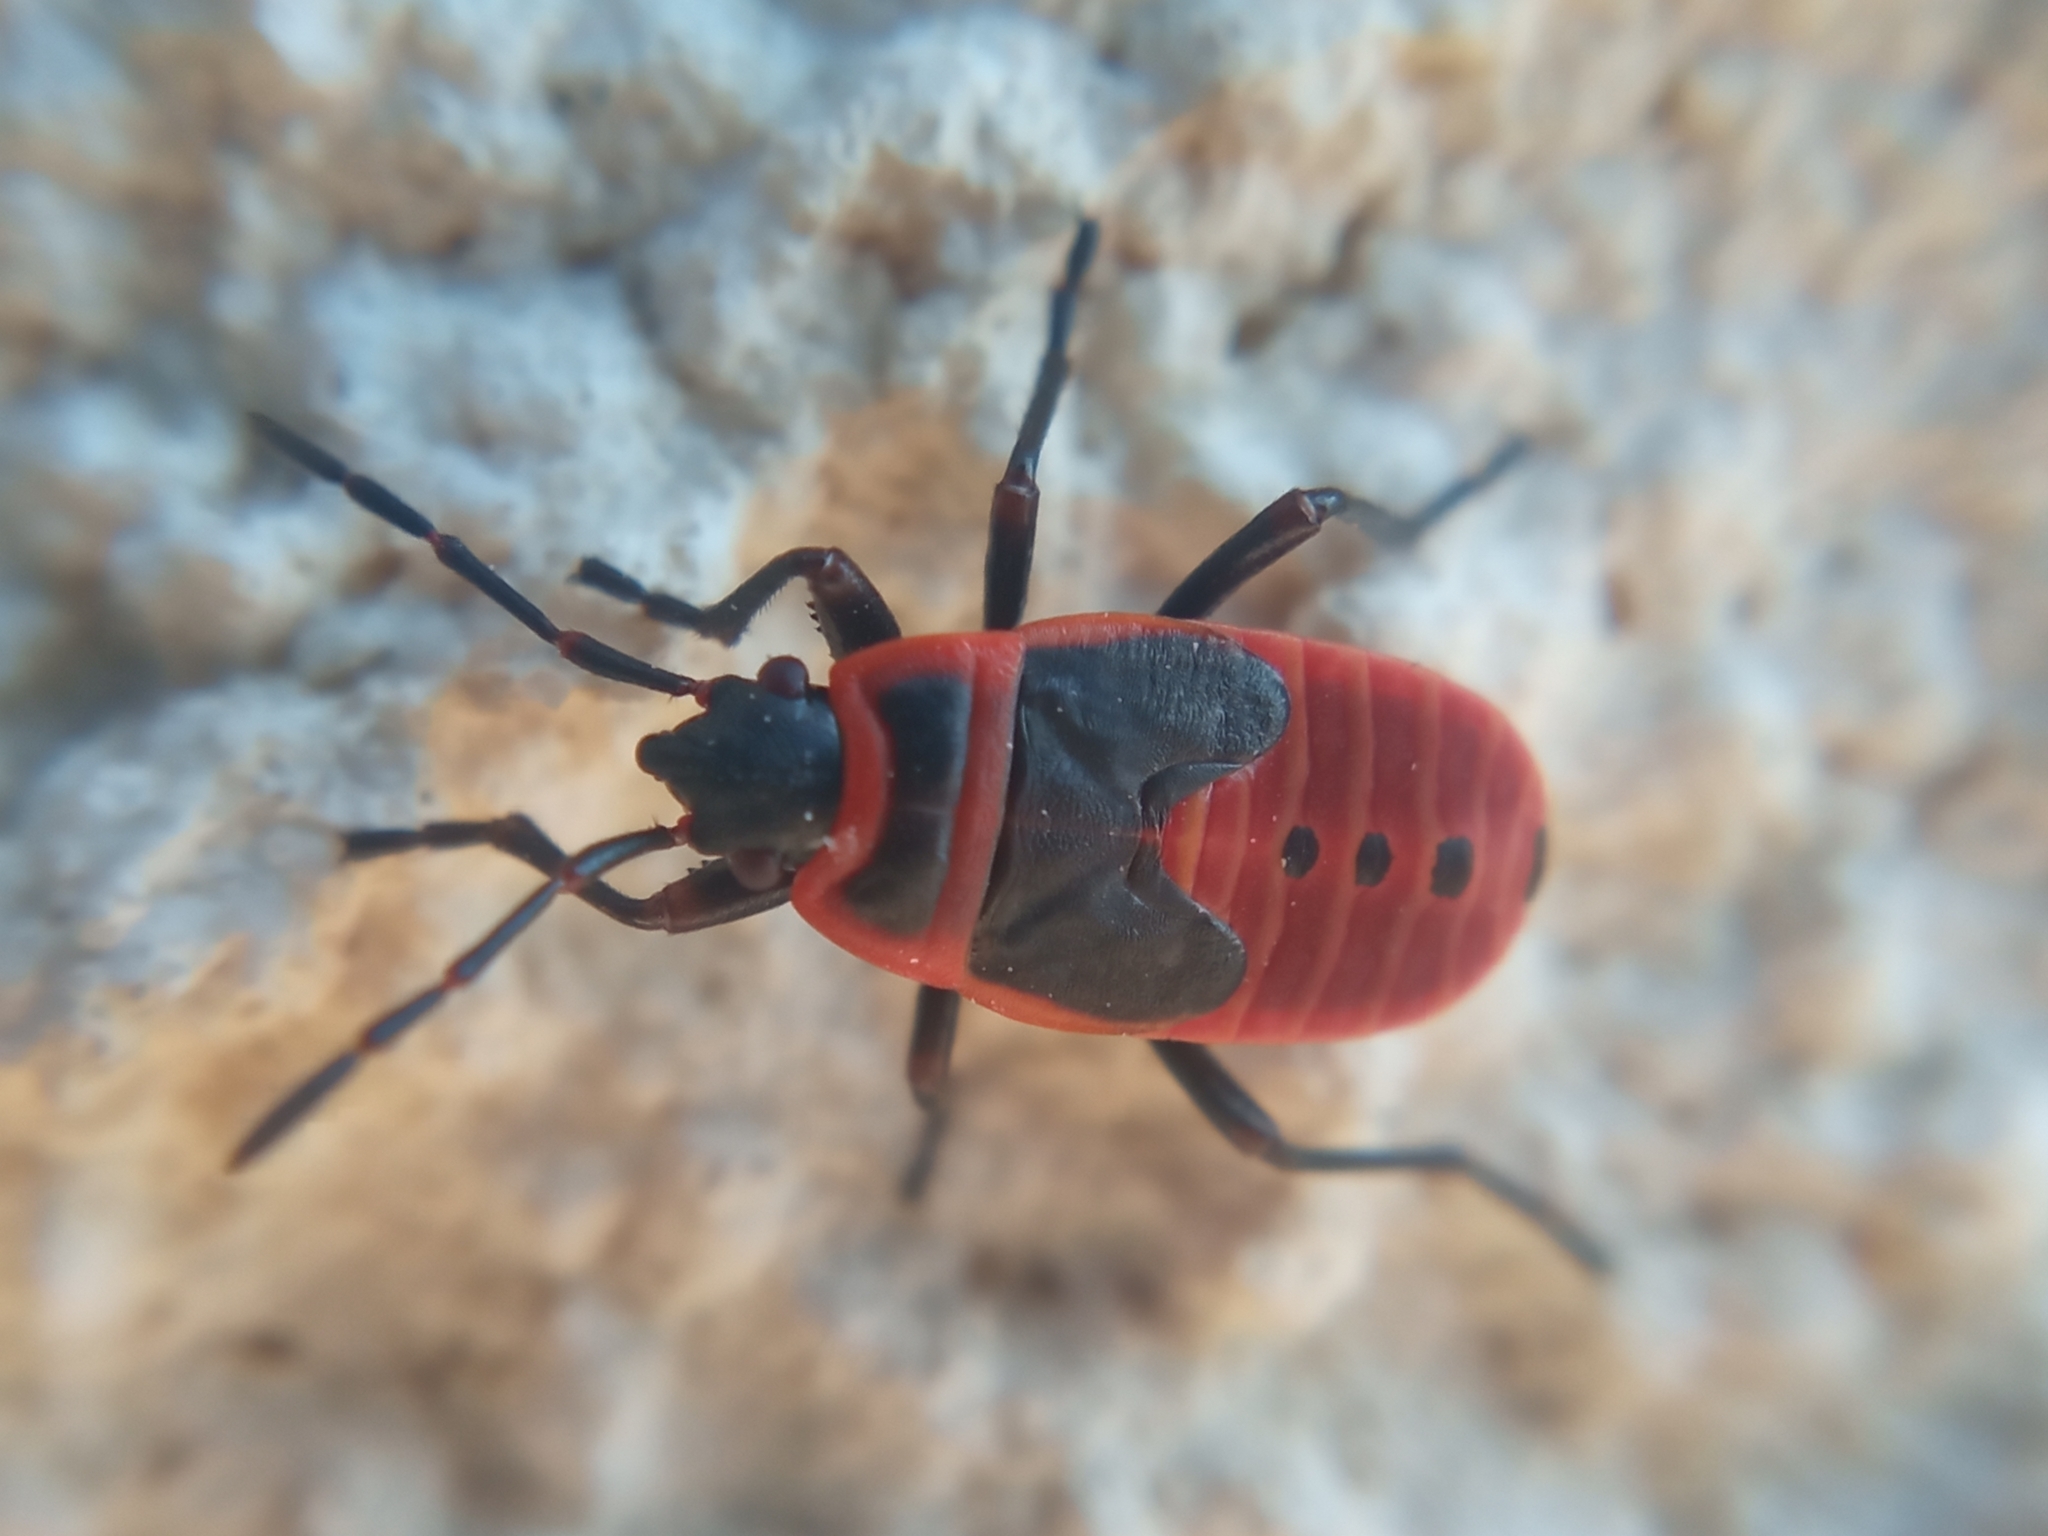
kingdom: Animalia
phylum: Arthropoda
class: Insecta
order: Hemiptera
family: Pyrrhocoridae
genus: Pyrrhocoris
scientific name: Pyrrhocoris apterus
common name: Firebug
